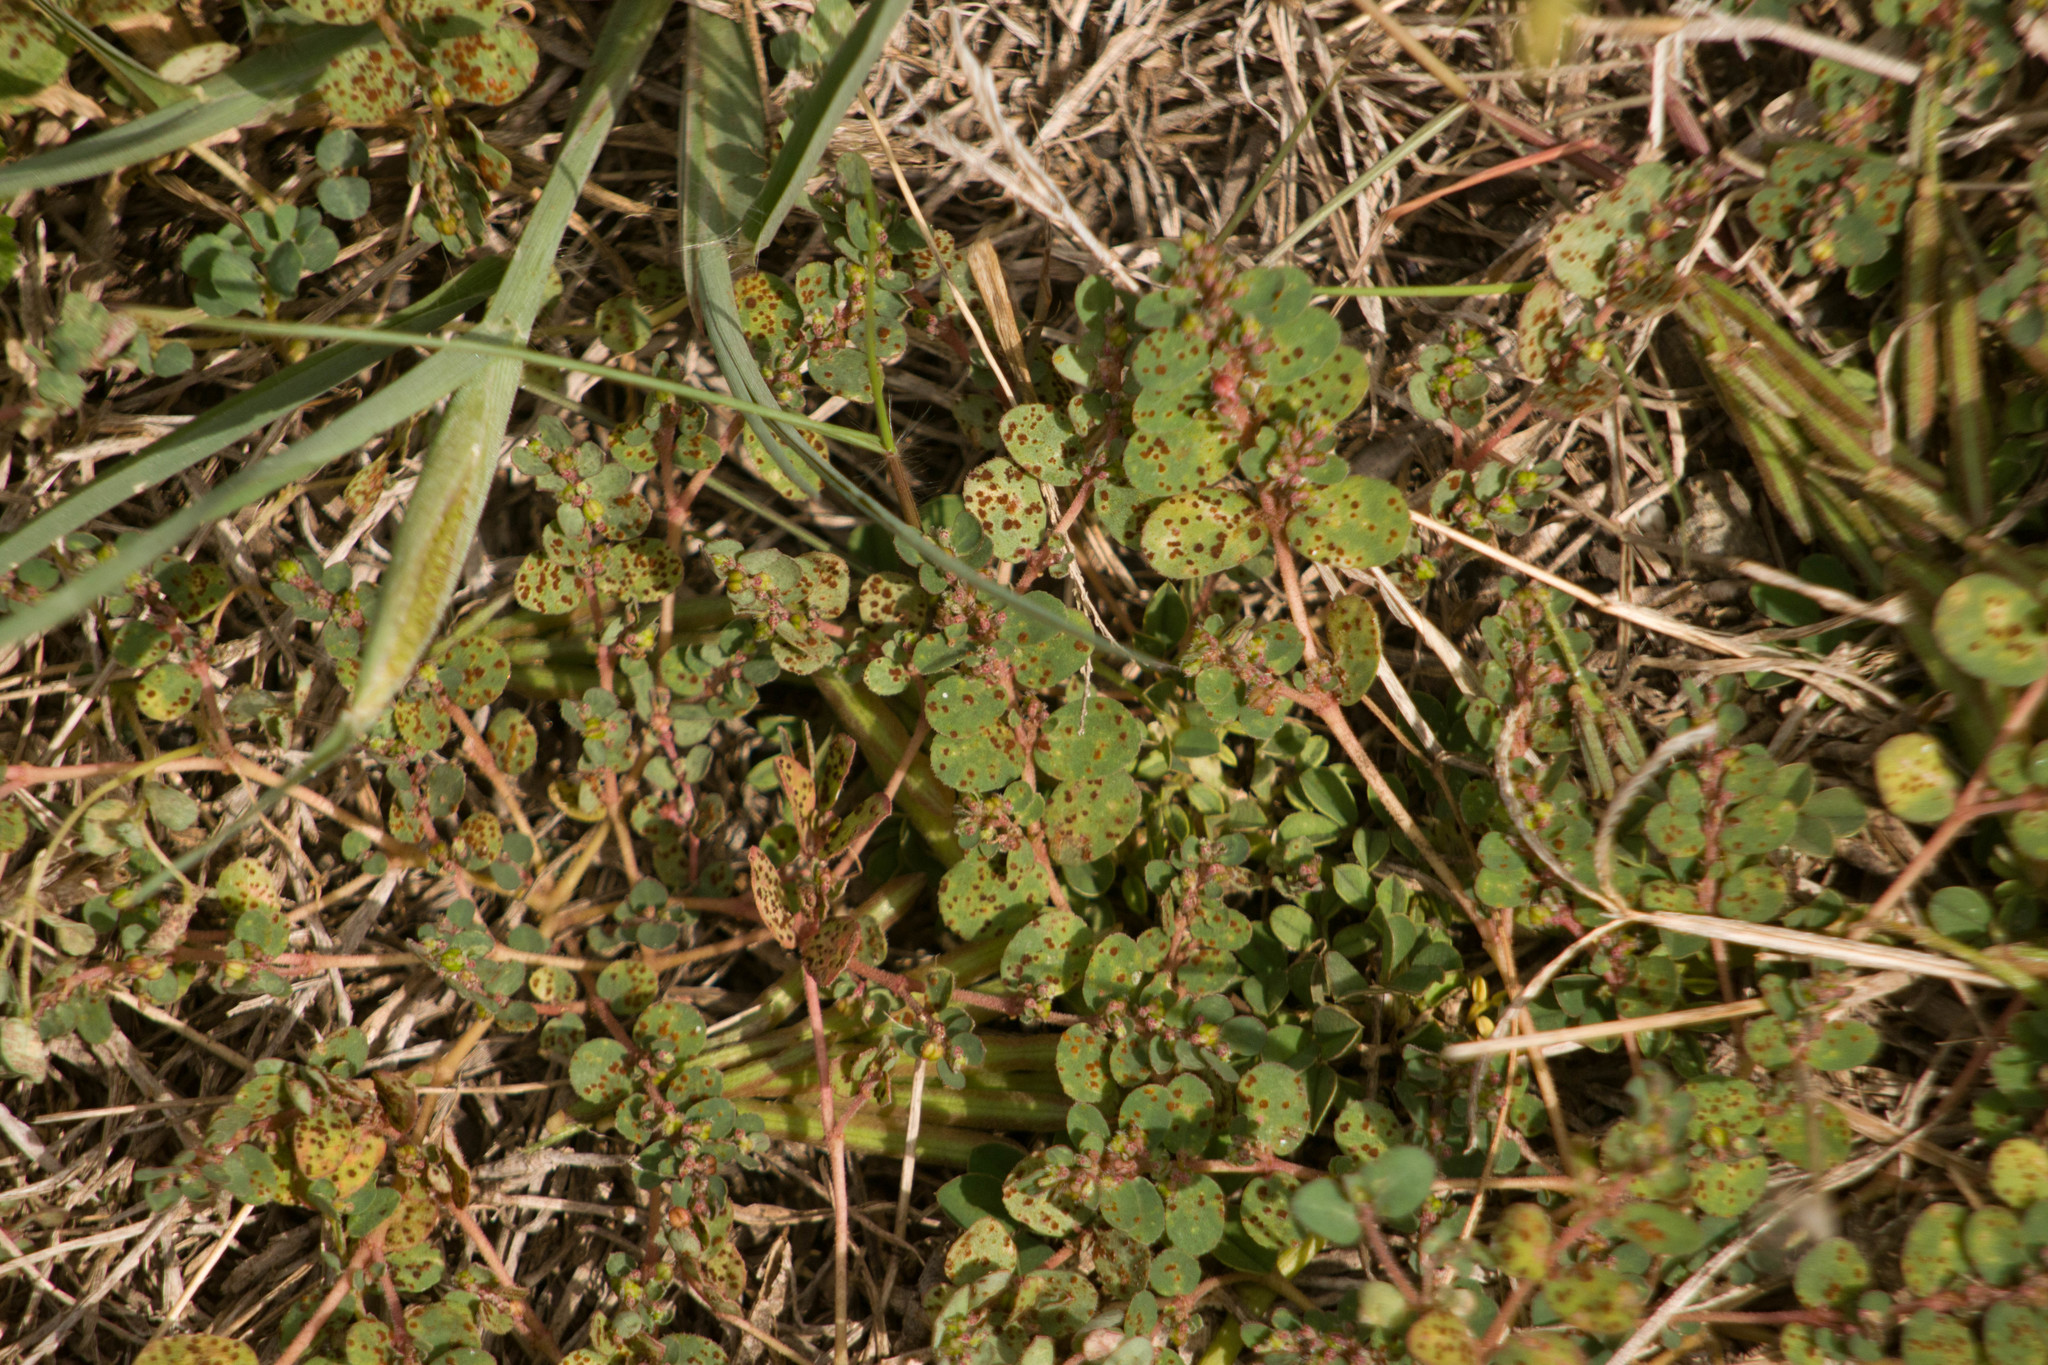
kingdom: Plantae
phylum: Tracheophyta
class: Magnoliopsida
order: Malpighiales
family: Euphorbiaceae
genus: Euphorbia
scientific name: Euphorbia prostrata
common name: Prostrate sandmat
